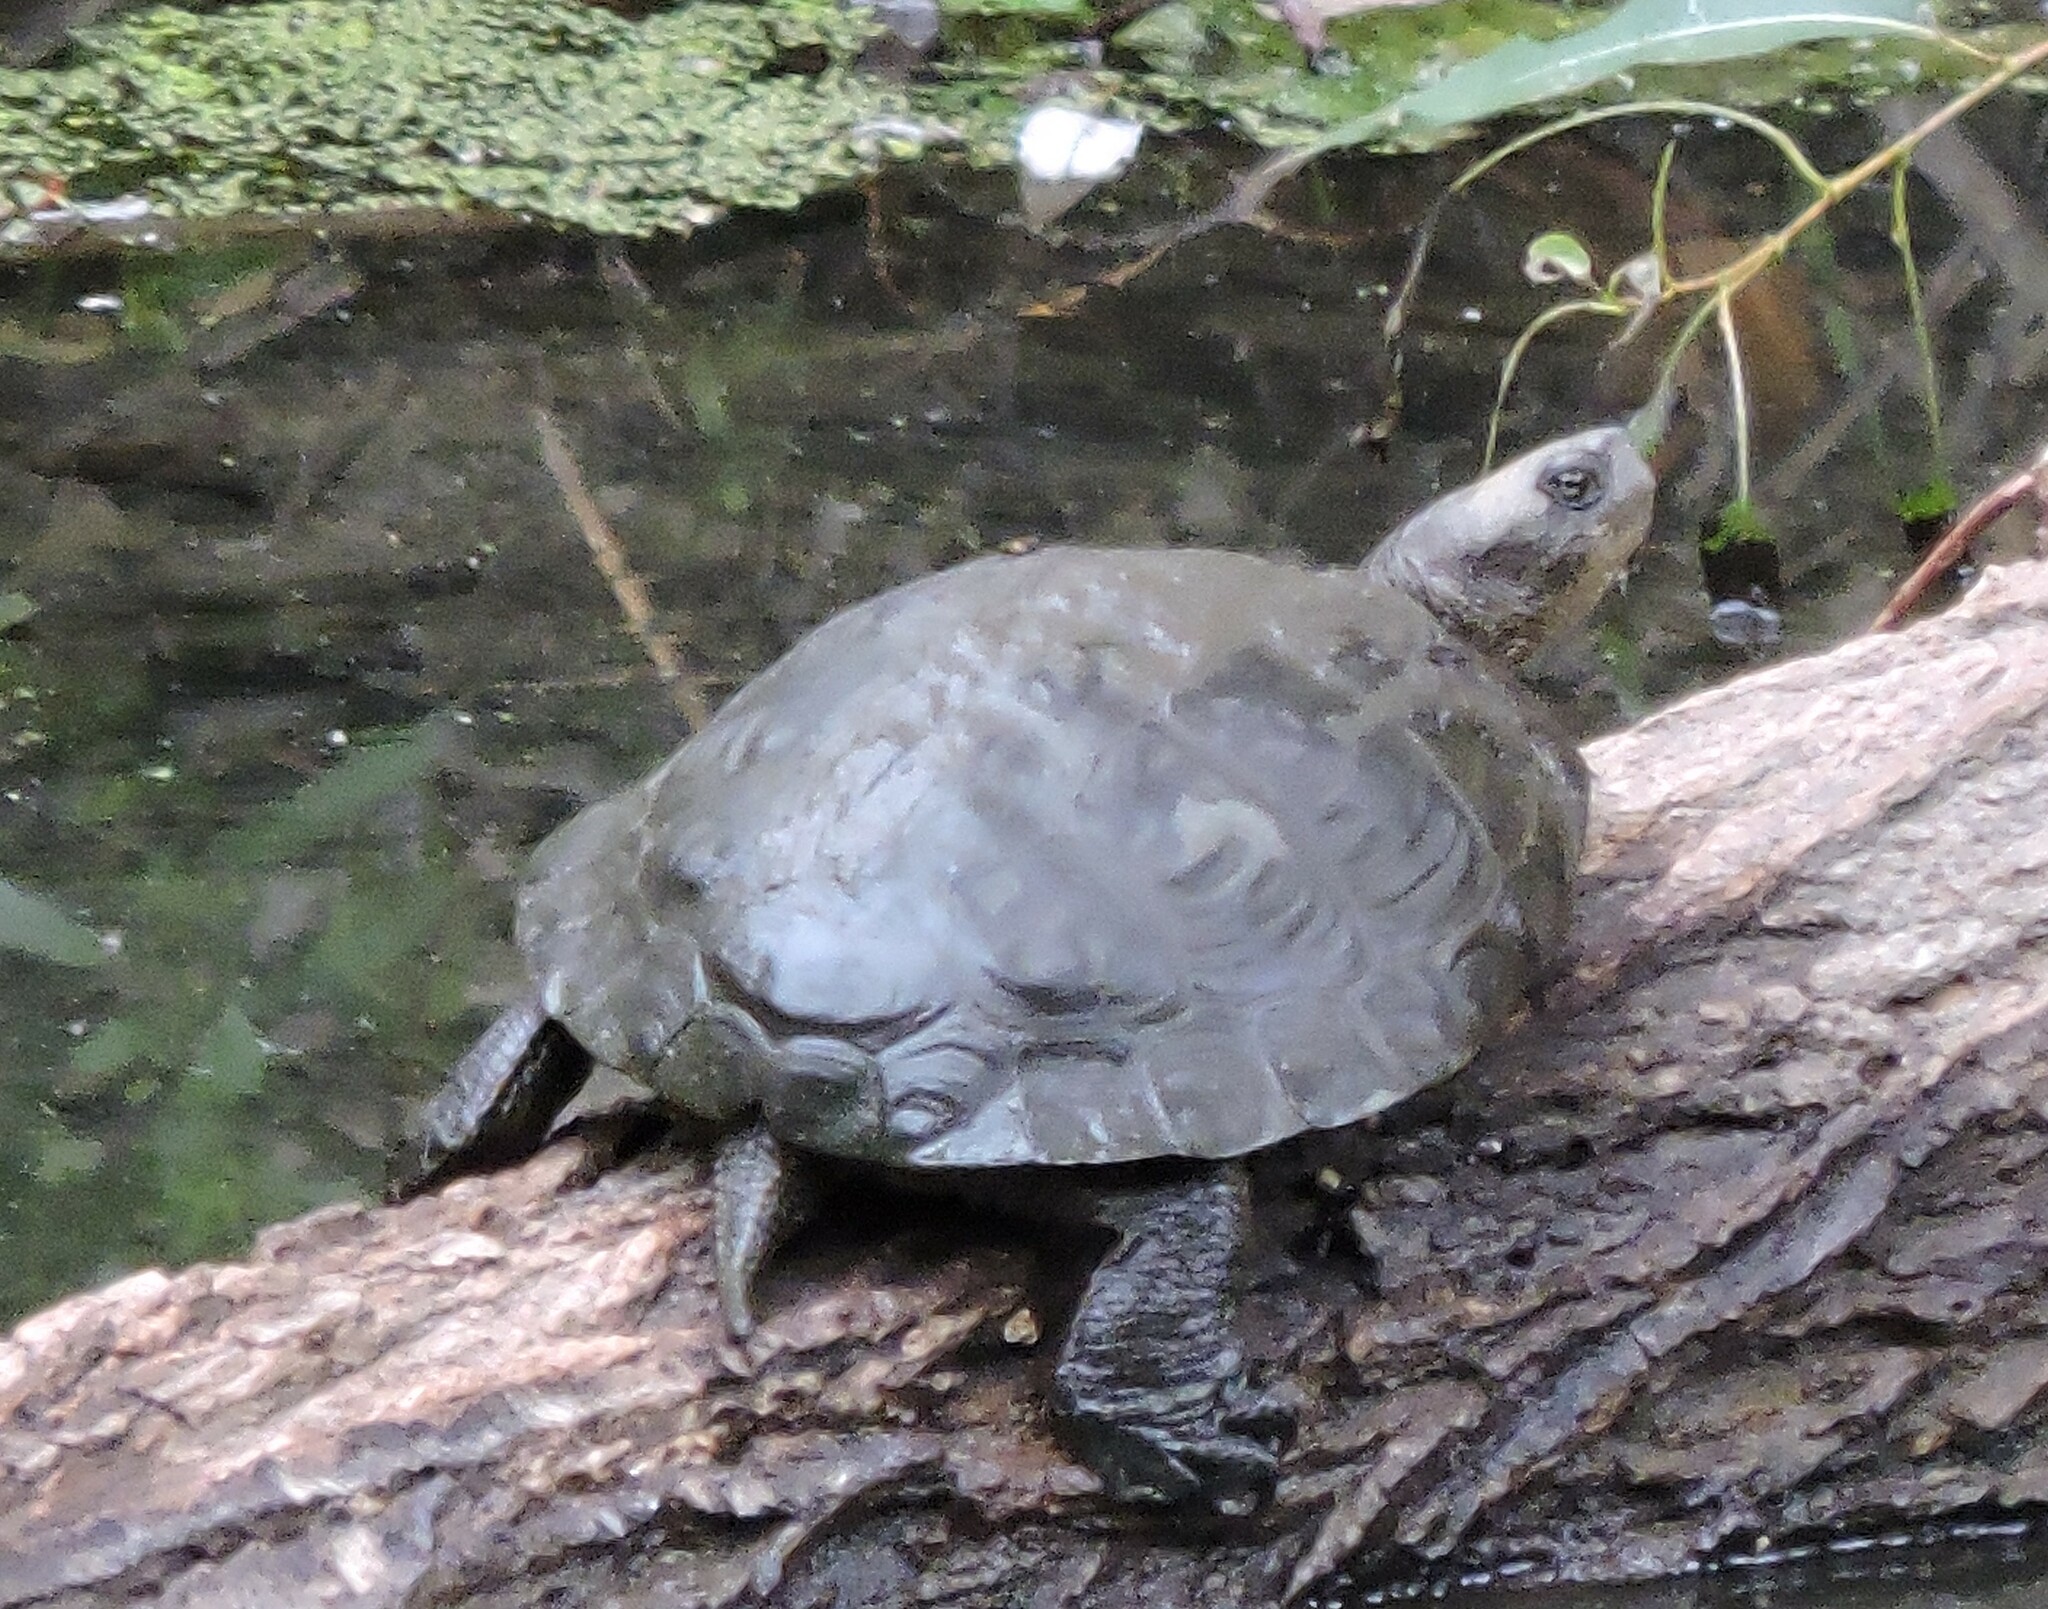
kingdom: Animalia
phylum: Chordata
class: Testudines
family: Emydidae
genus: Actinemys
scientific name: Actinemys marmorata
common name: Western pond turtle
